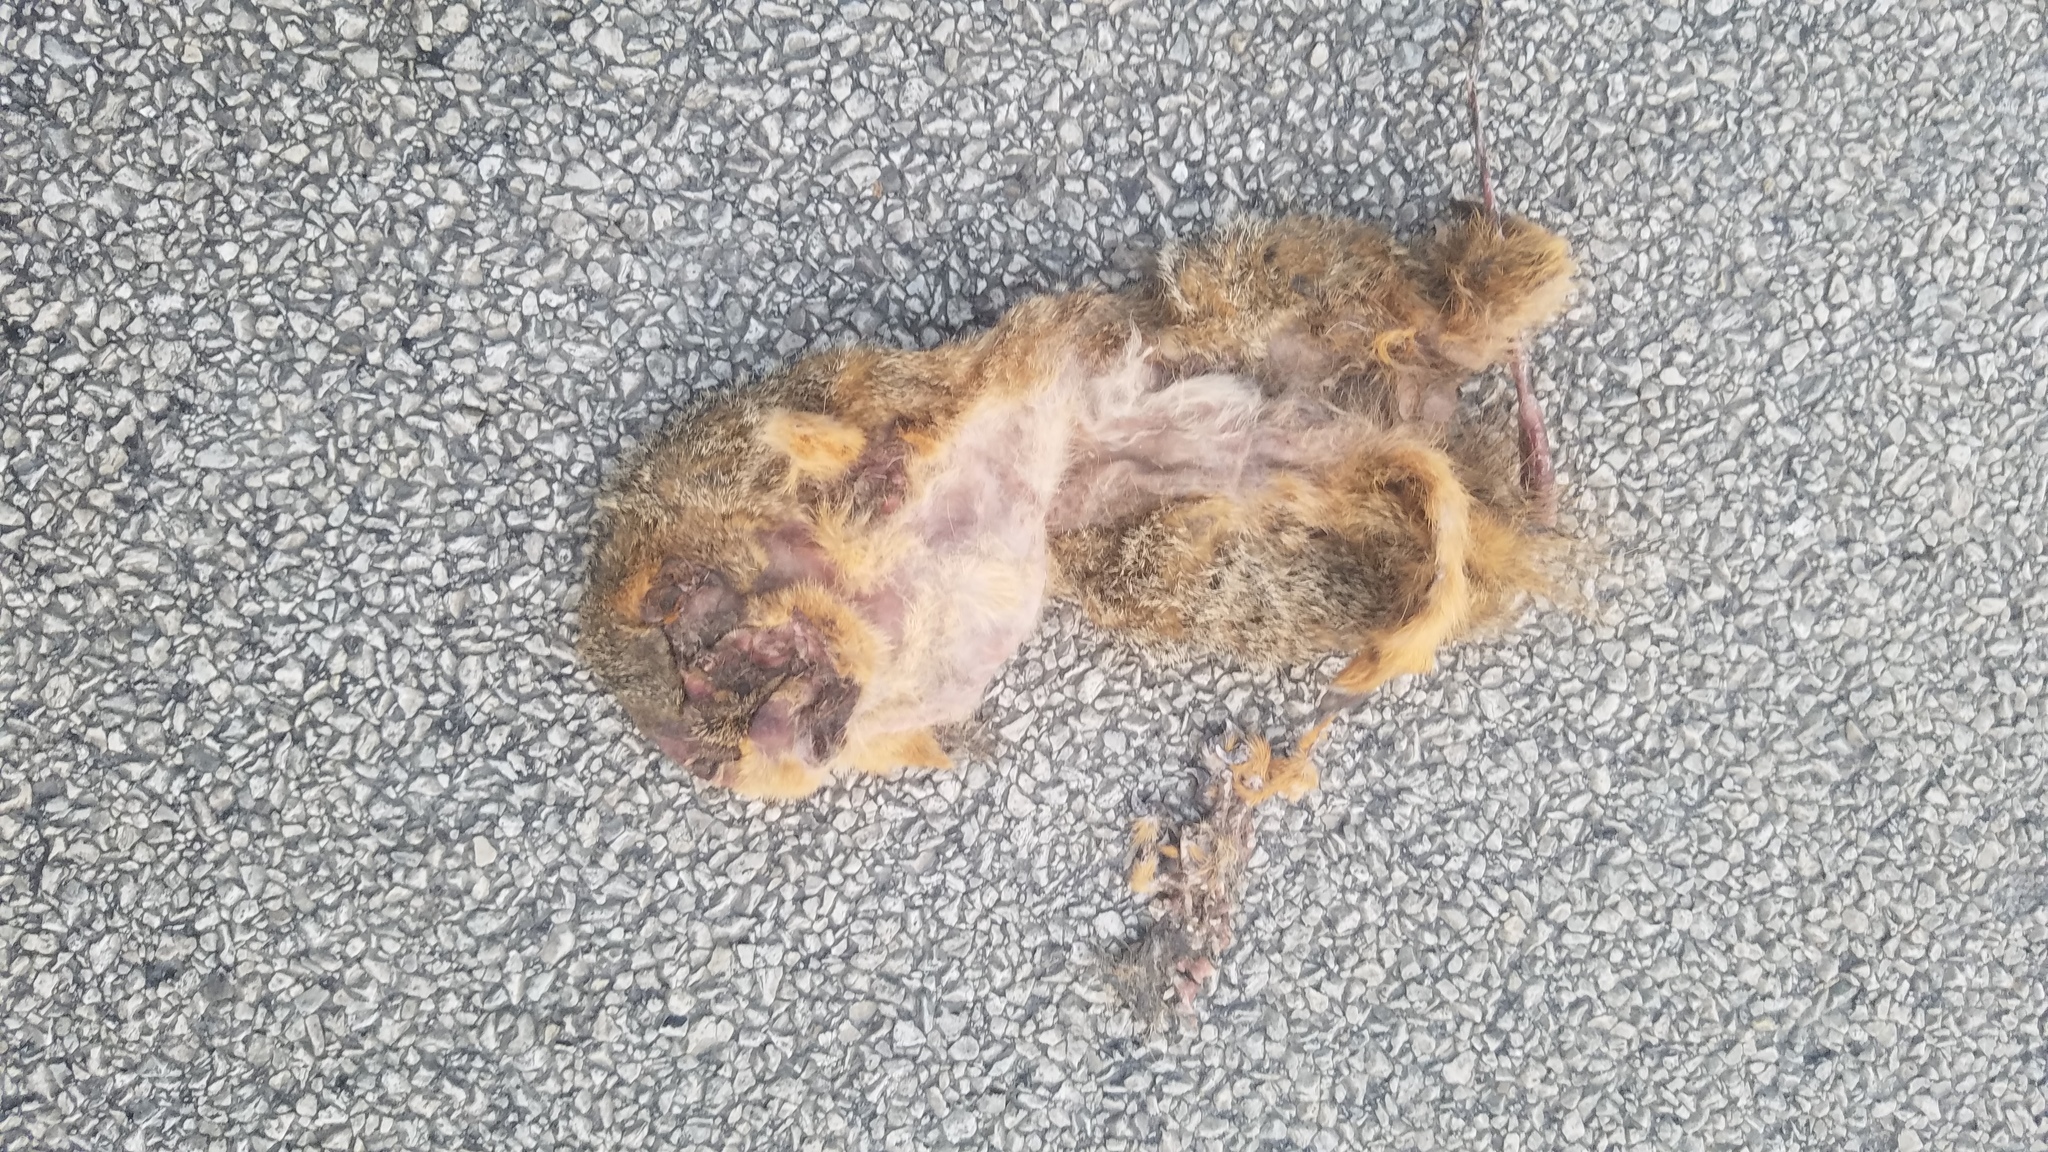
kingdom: Animalia
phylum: Chordata
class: Mammalia
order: Rodentia
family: Sciuridae
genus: Sciurus
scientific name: Sciurus niger
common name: Fox squirrel
